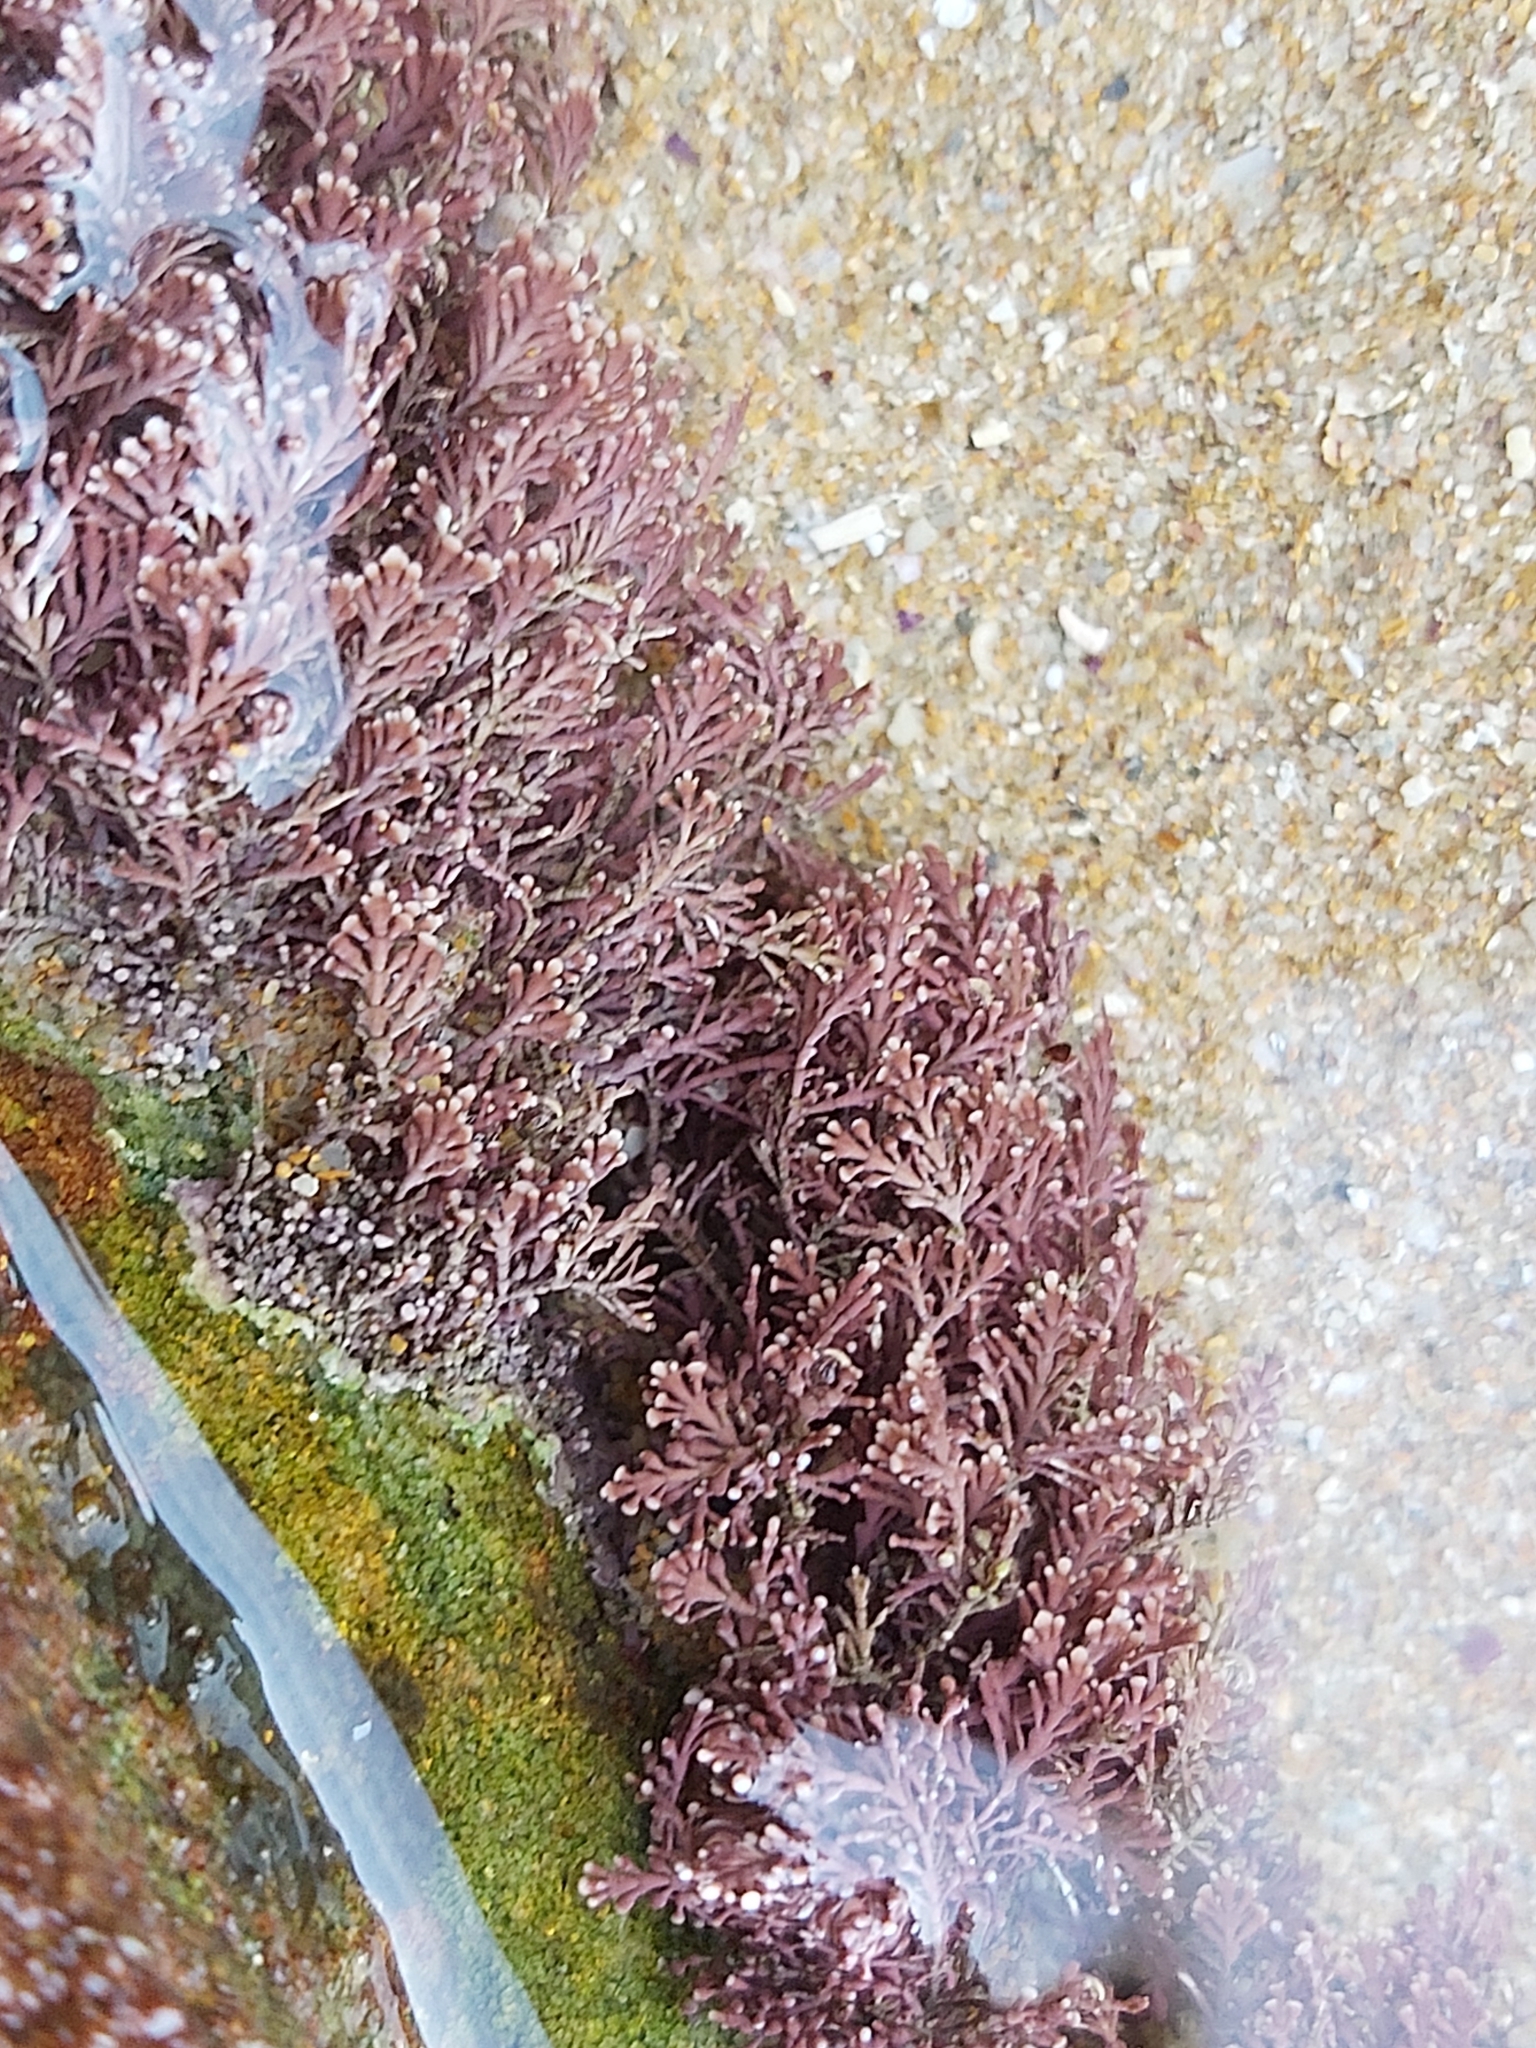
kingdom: Plantae
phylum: Rhodophyta
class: Florideophyceae
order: Corallinales
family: Corallinaceae
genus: Corallina
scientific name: Corallina officinalis
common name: Coral weed
